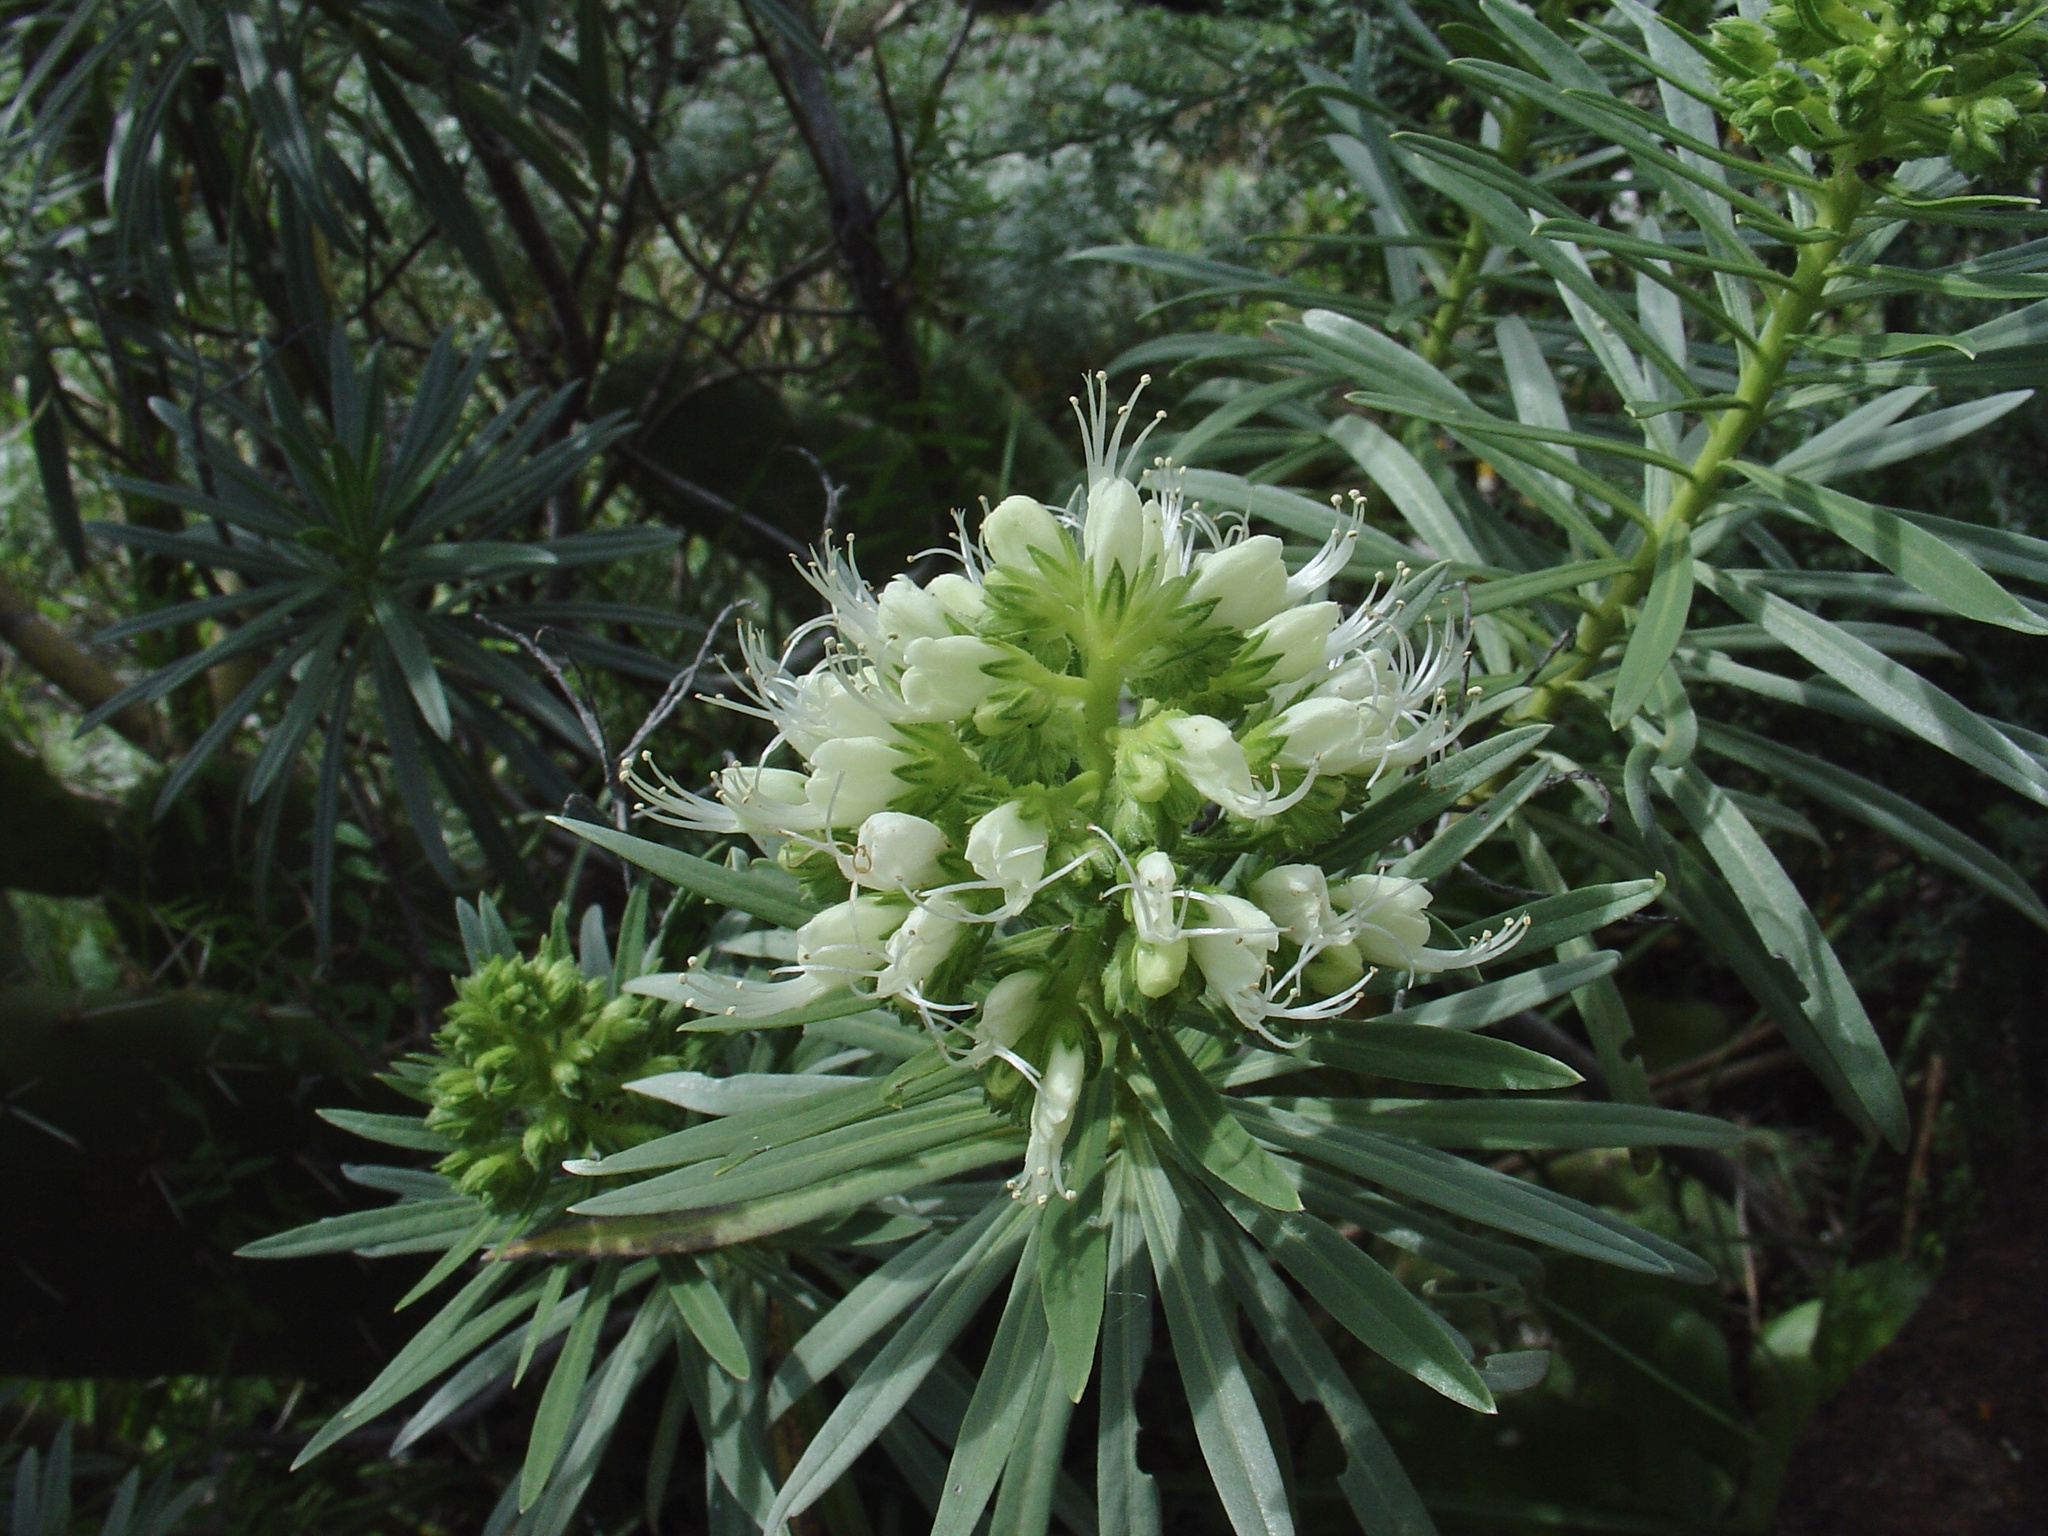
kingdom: Plantae
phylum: Tracheophyta
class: Magnoliopsida
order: Boraginales
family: Boraginaceae
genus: Echium
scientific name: Echium leucophaeum
